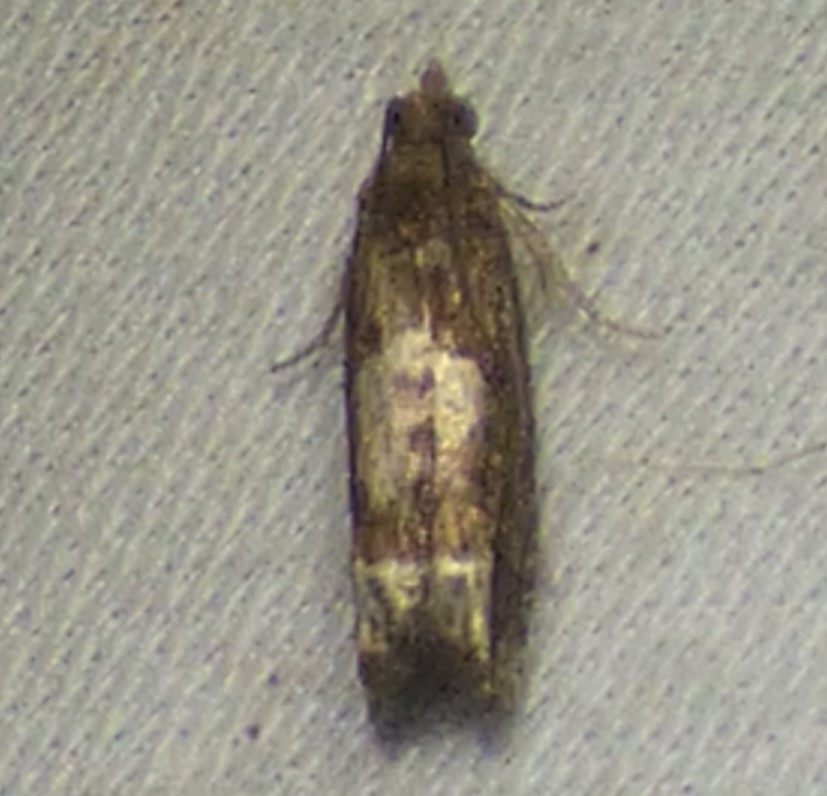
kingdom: Animalia
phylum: Arthropoda
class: Insecta
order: Lepidoptera
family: Tortricidae
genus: Eucosma
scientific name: Eucosma parmatana
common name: Aster eucosma moth
